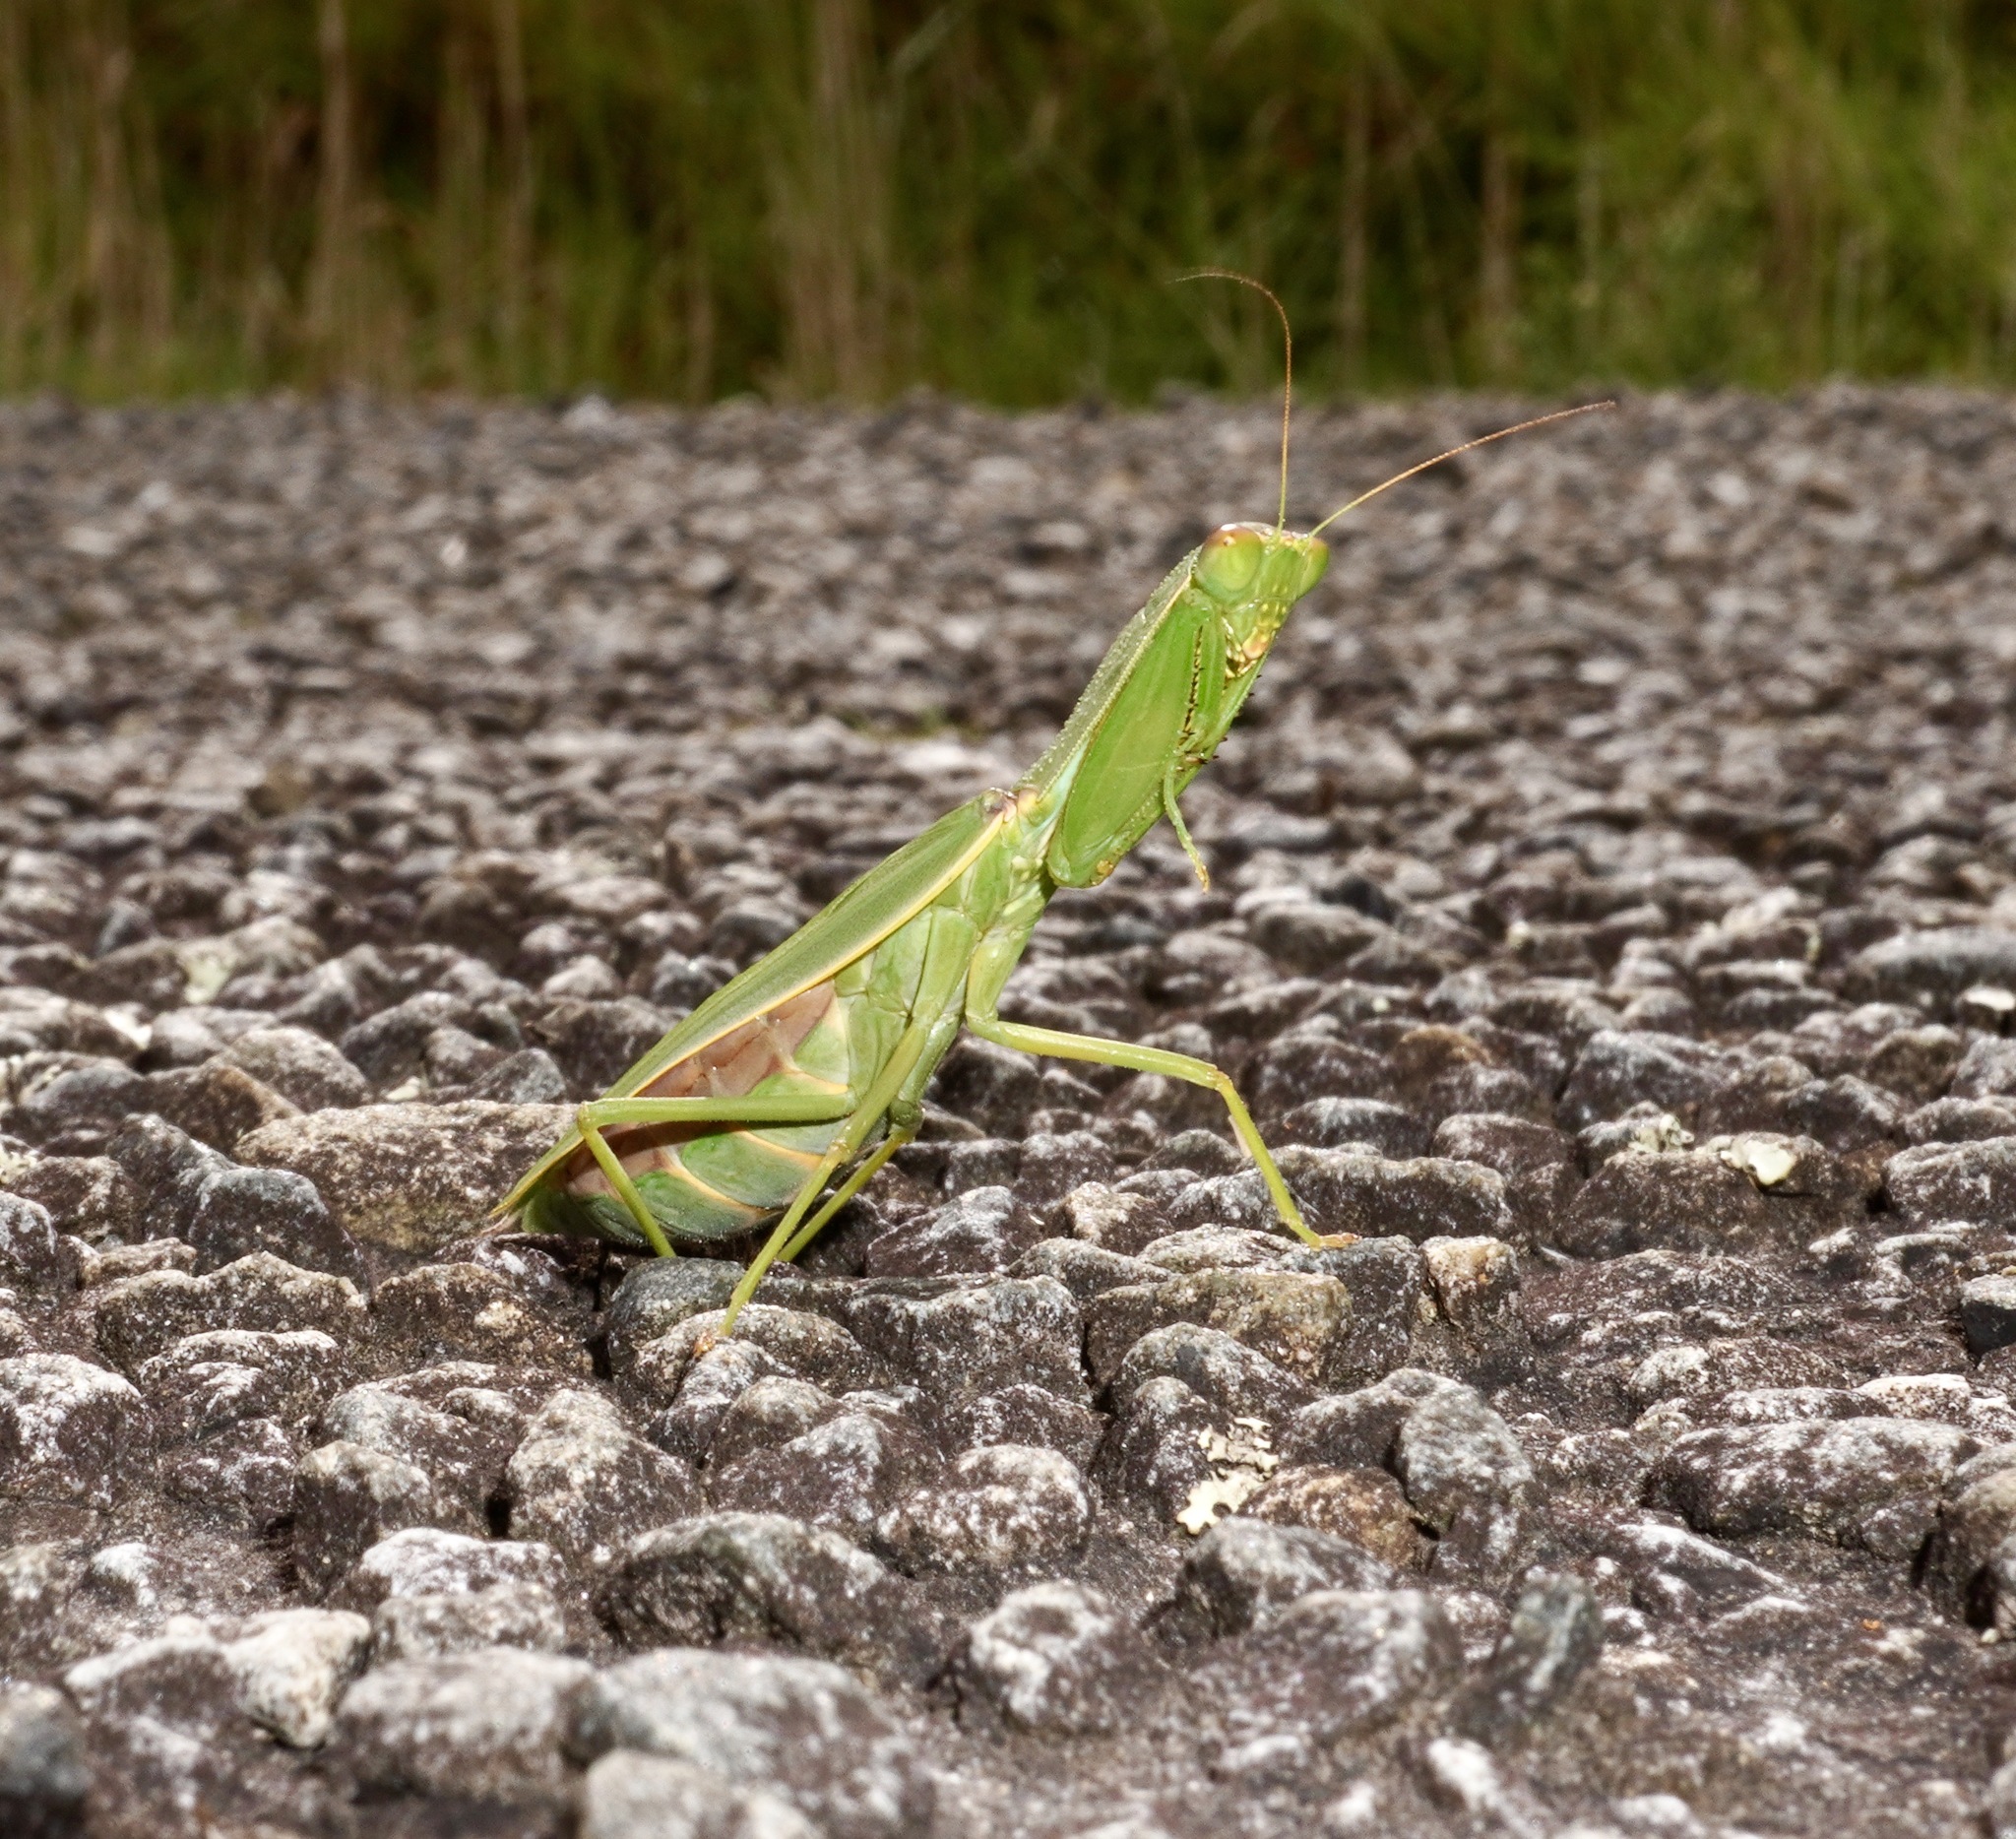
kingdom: Animalia
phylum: Arthropoda
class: Insecta
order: Mantodea
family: Mantidae
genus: Orthodera
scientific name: Orthodera novaezealandiae
